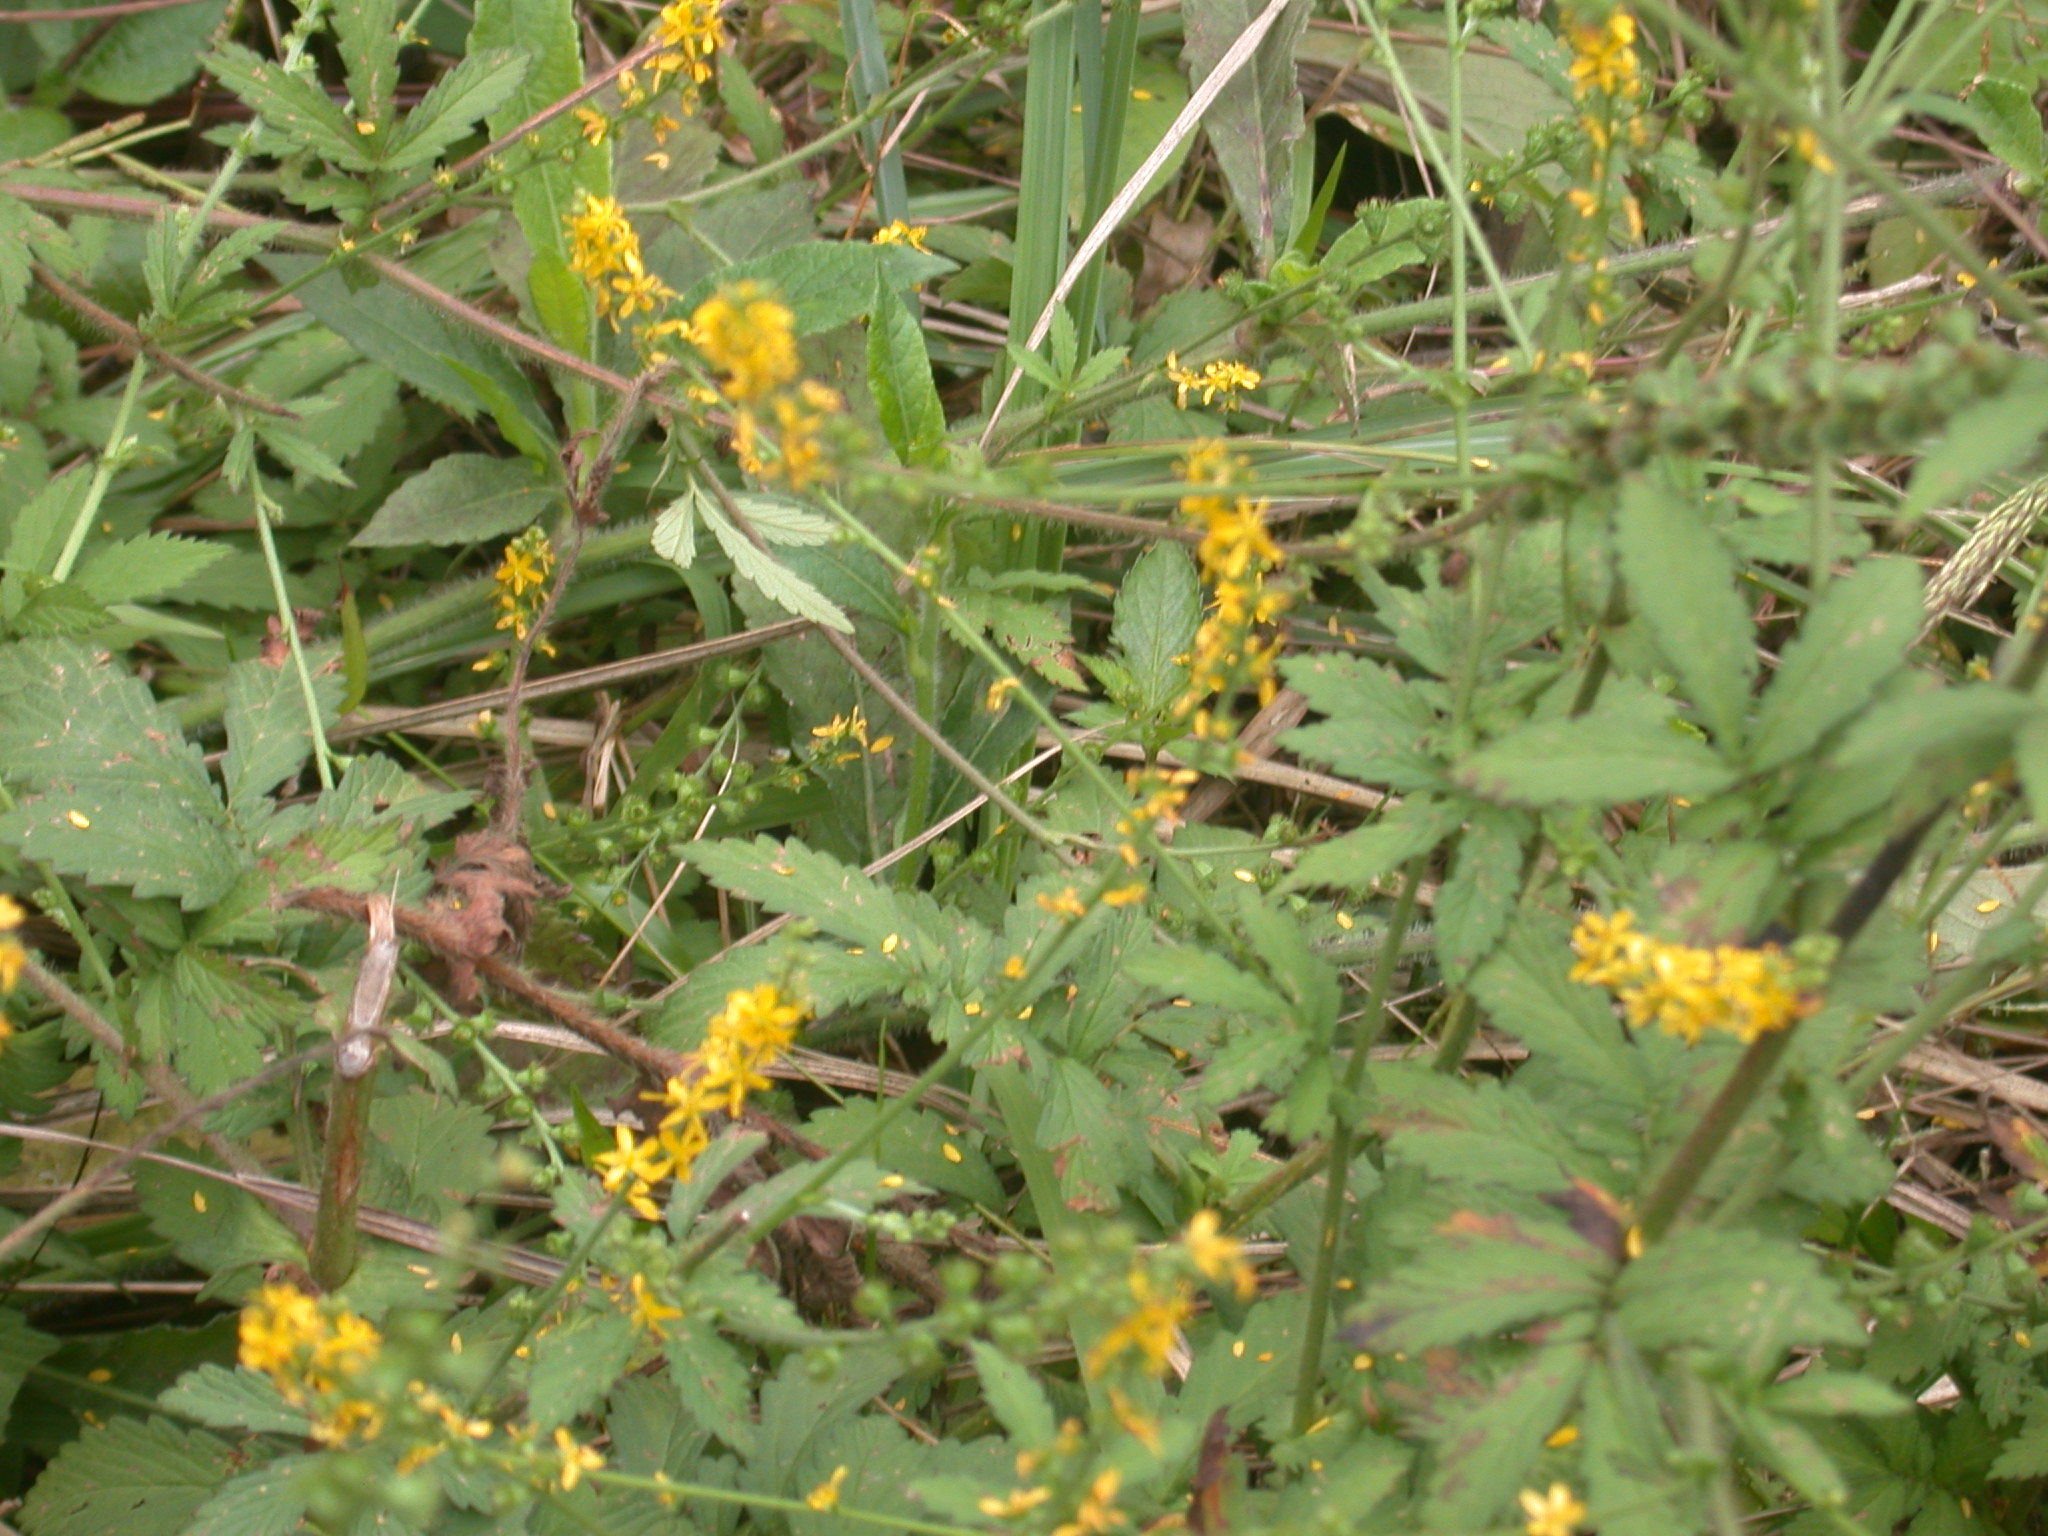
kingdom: Plantae
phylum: Tracheophyta
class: Magnoliopsida
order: Rosales
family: Rosaceae
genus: Agrimonia
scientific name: Agrimonia pilosa
